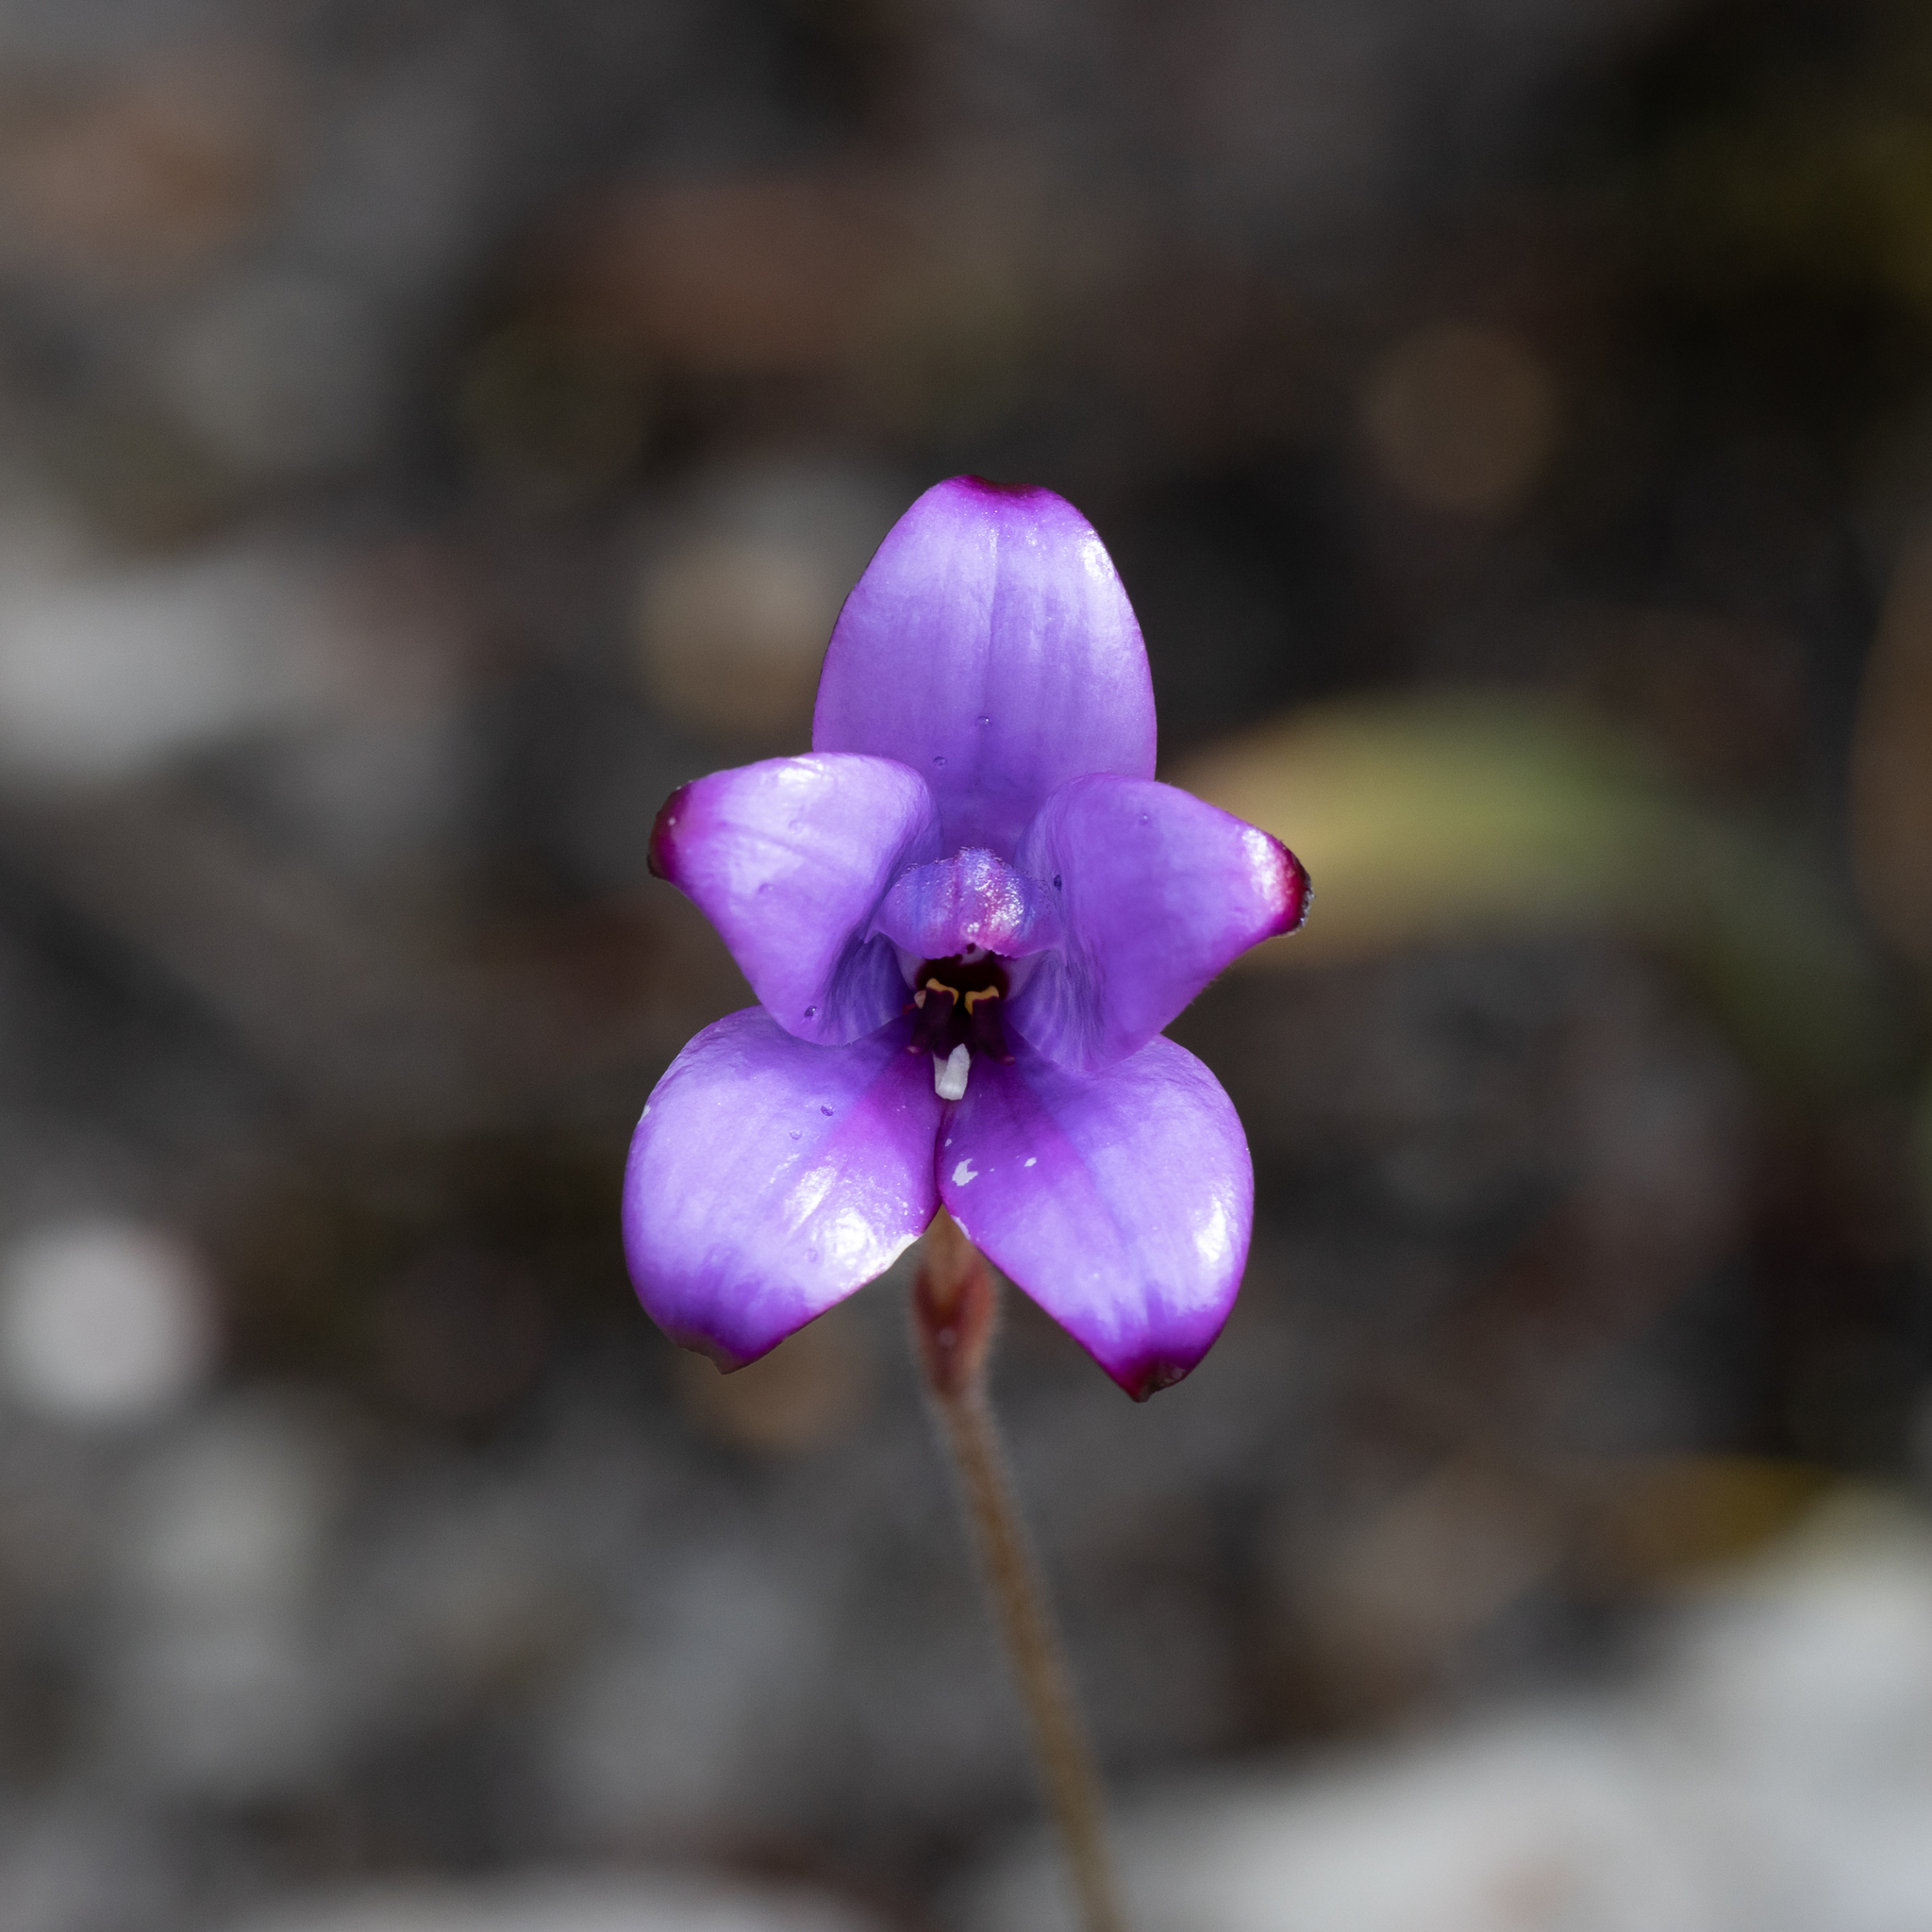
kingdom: Plantae
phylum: Tracheophyta
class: Liliopsida
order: Asparagales
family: Orchidaceae
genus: Caladenia
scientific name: Caladenia brunonis
